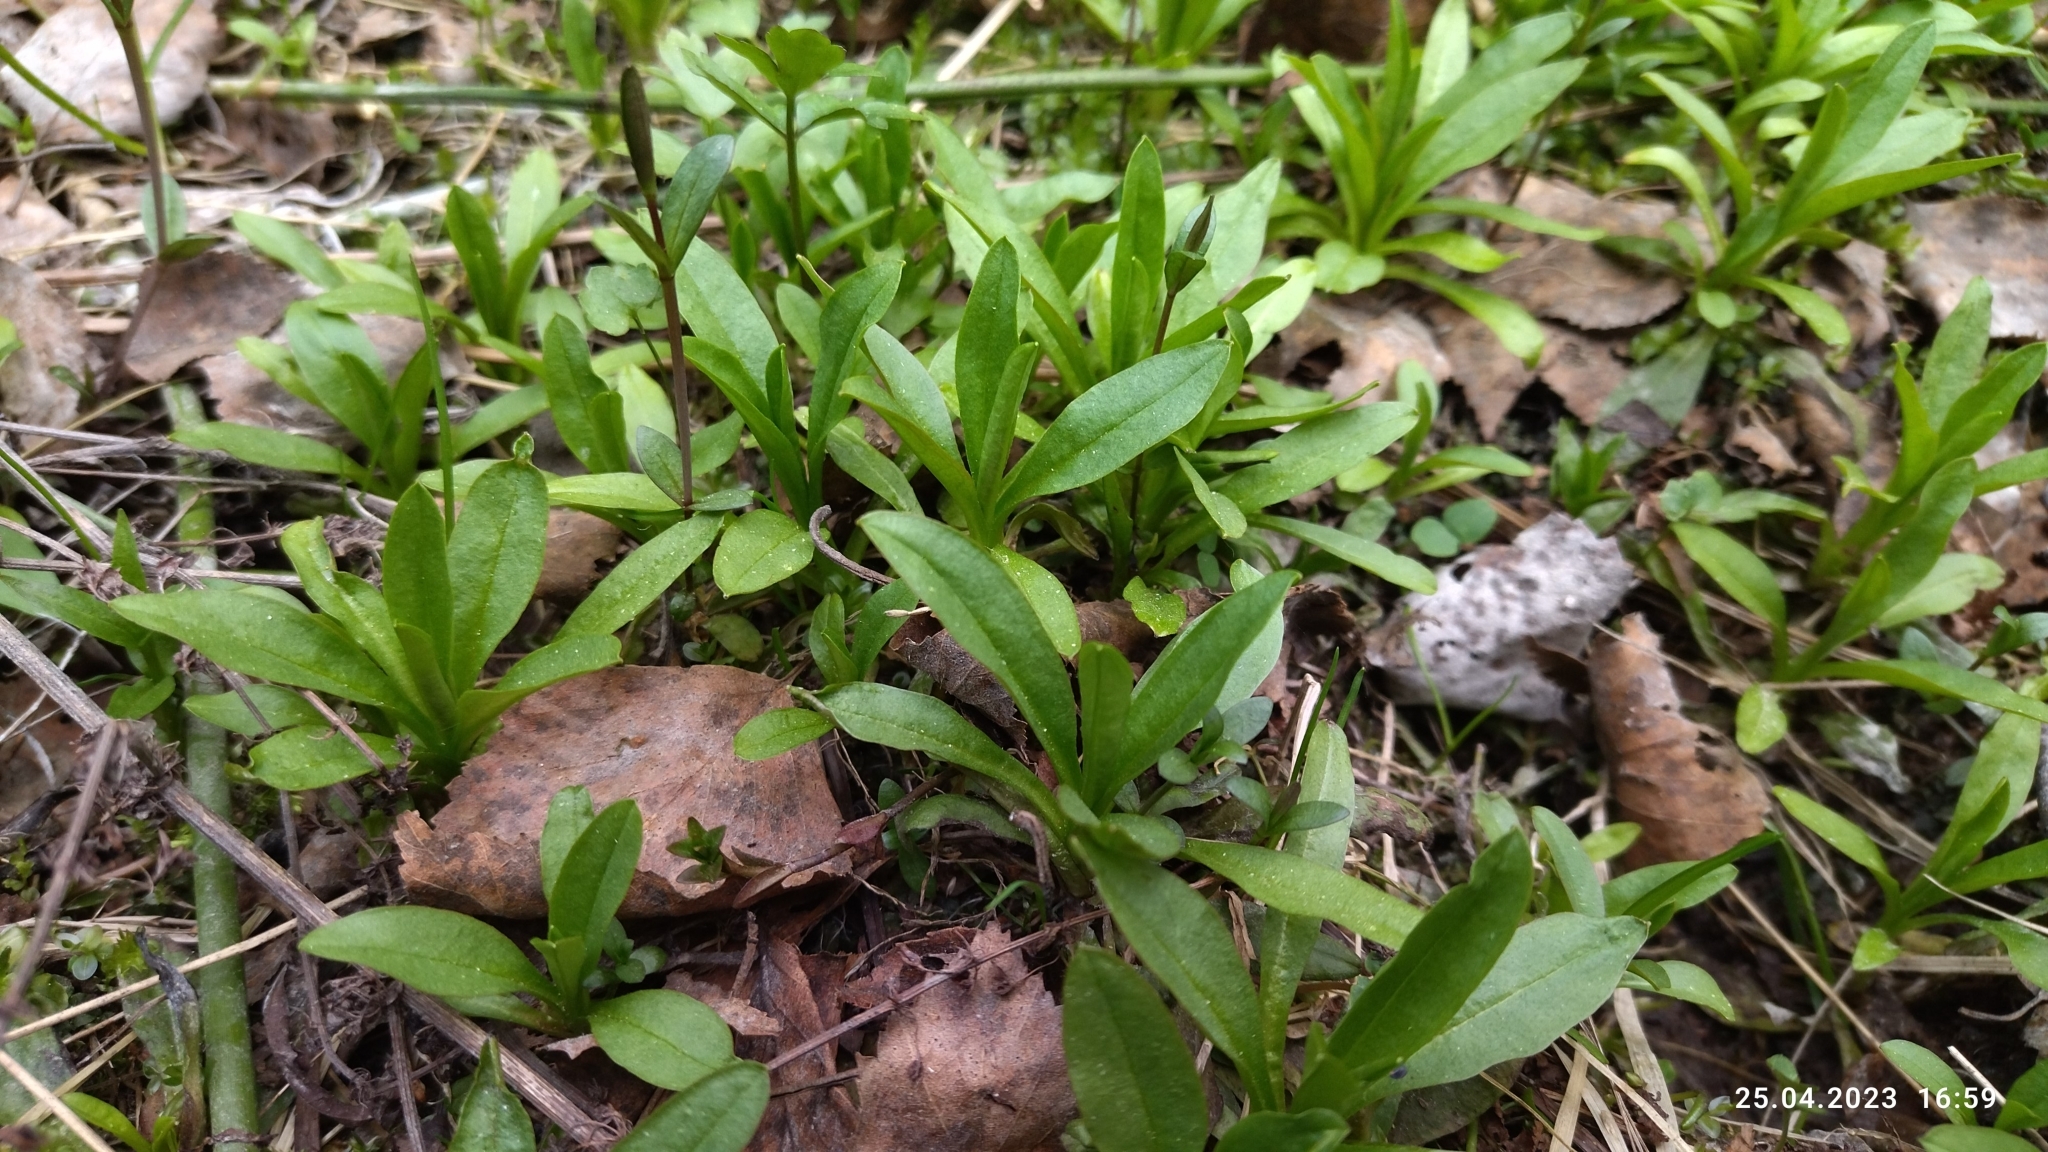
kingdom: Plantae
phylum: Tracheophyta
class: Magnoliopsida
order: Boraginales
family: Boraginaceae
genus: Myosotis
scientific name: Myosotis scorpioides
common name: Water forget-me-not
